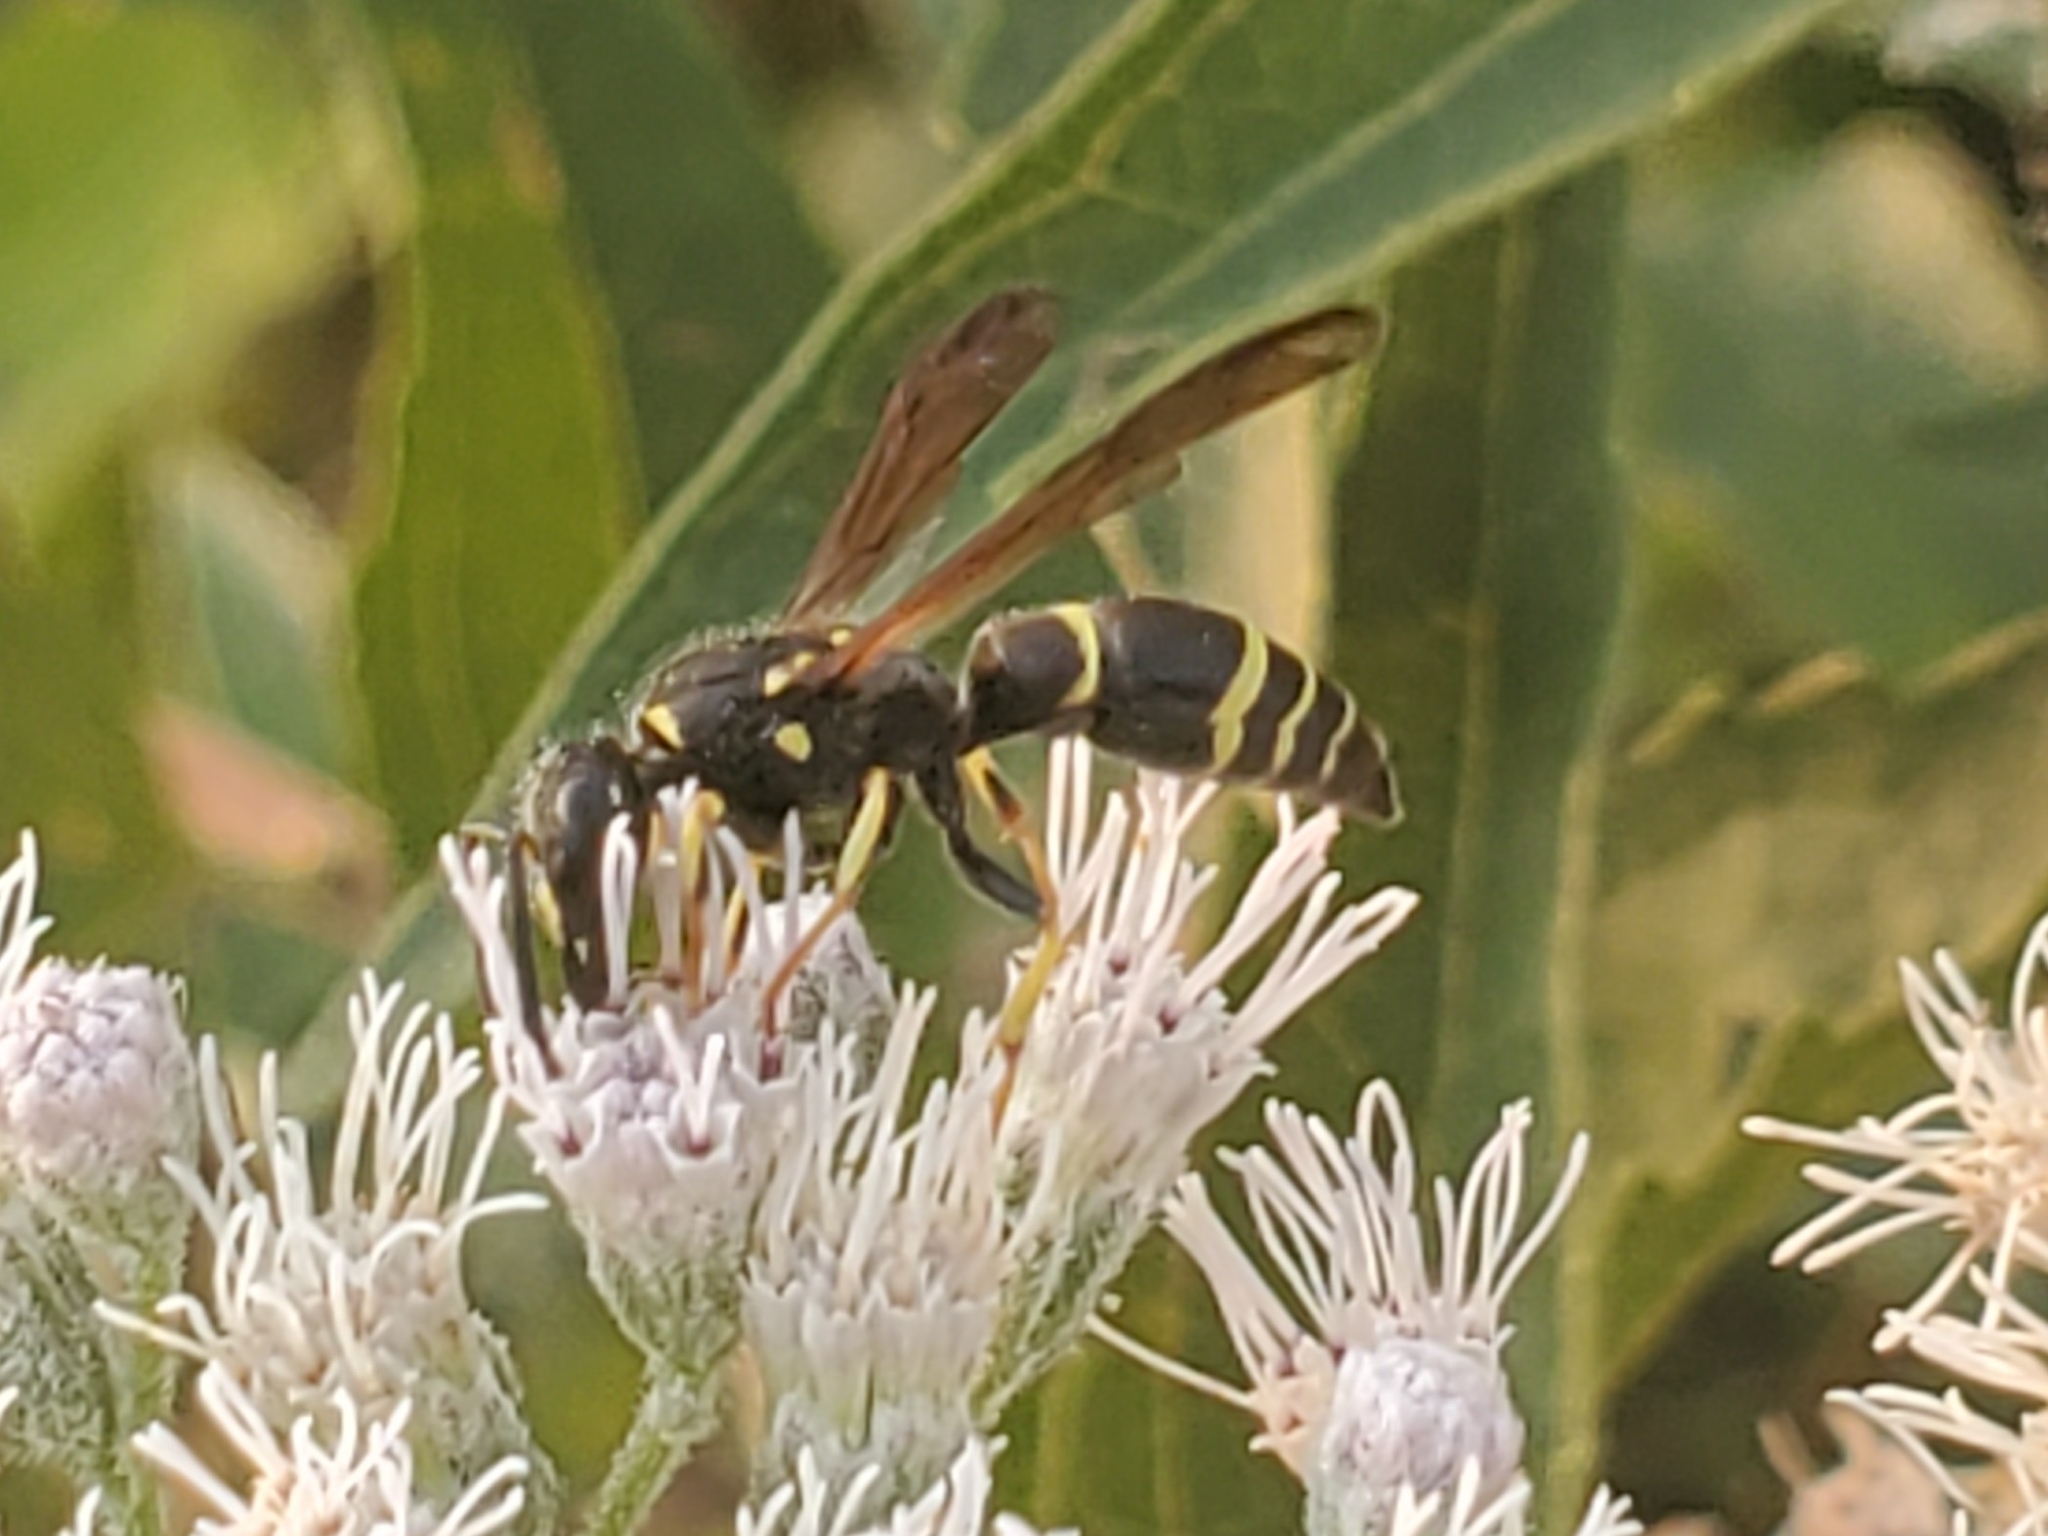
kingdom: Animalia
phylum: Arthropoda
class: Insecta
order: Hymenoptera
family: Vespidae
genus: Ancistrocerus
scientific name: Ancistrocerus adiabatus
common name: Bramble mason wasp
